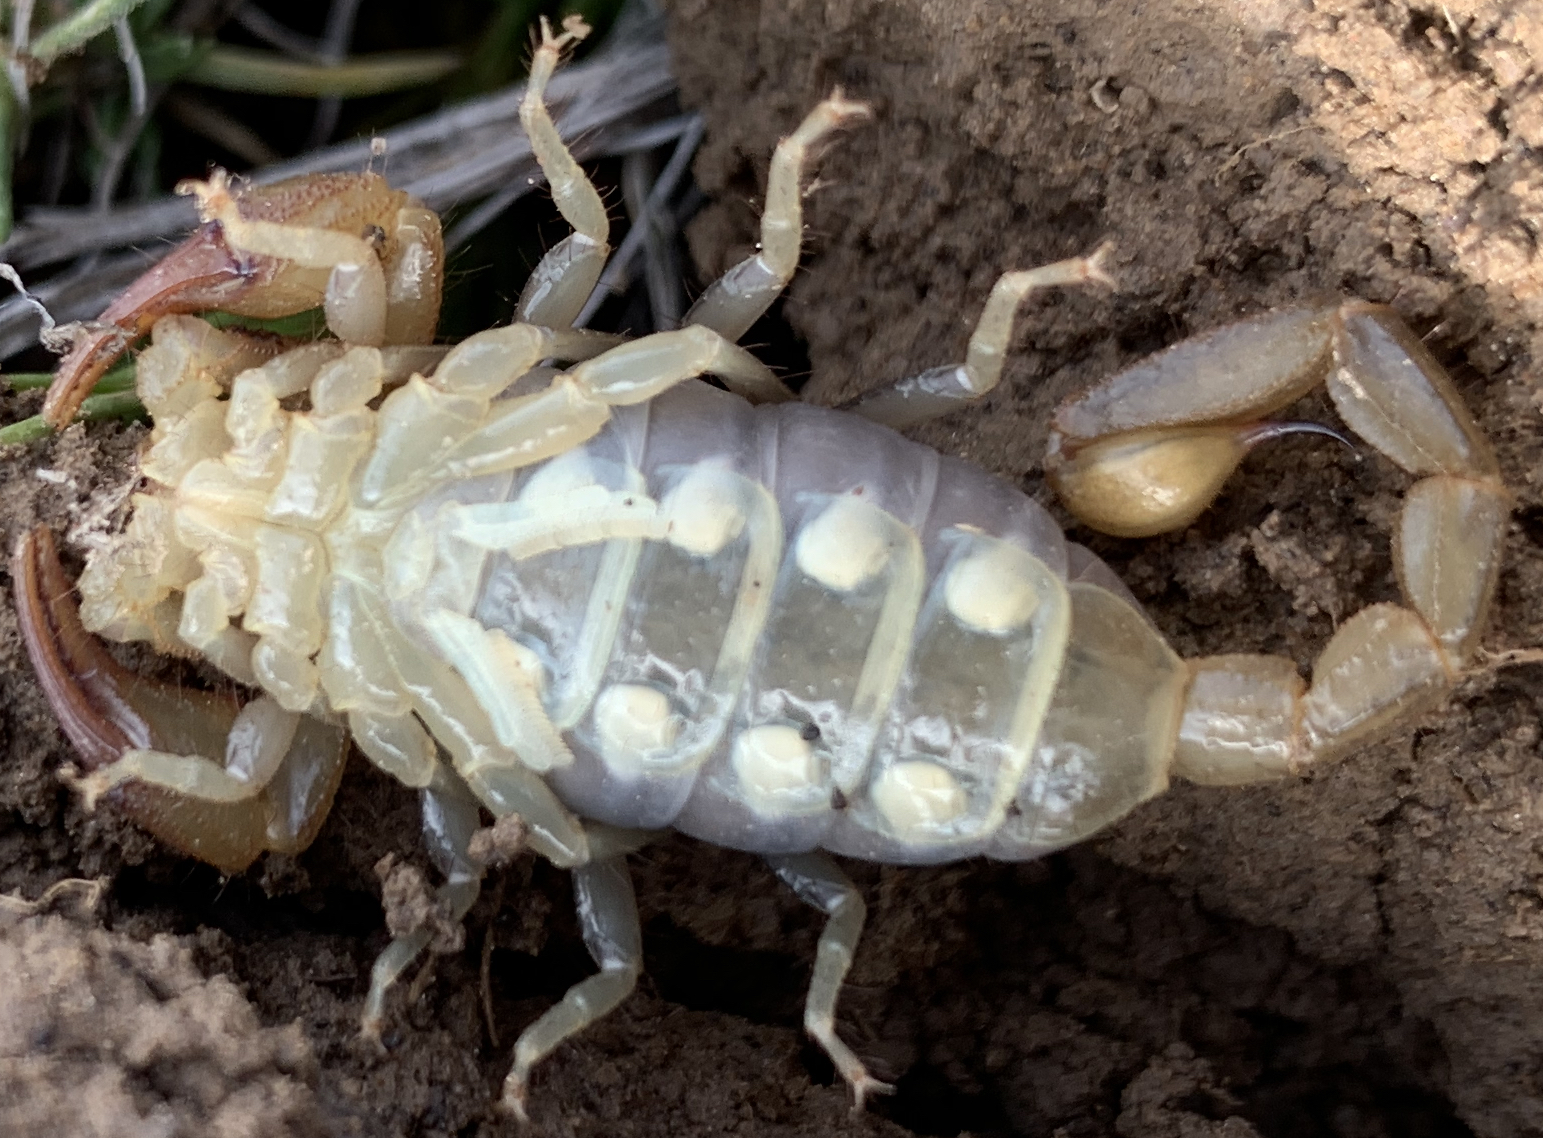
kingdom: Animalia
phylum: Arthropoda
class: Arachnida
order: Scorpiones
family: Vaejovidae
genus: Paruroctonus
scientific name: Paruroctonus boreus
